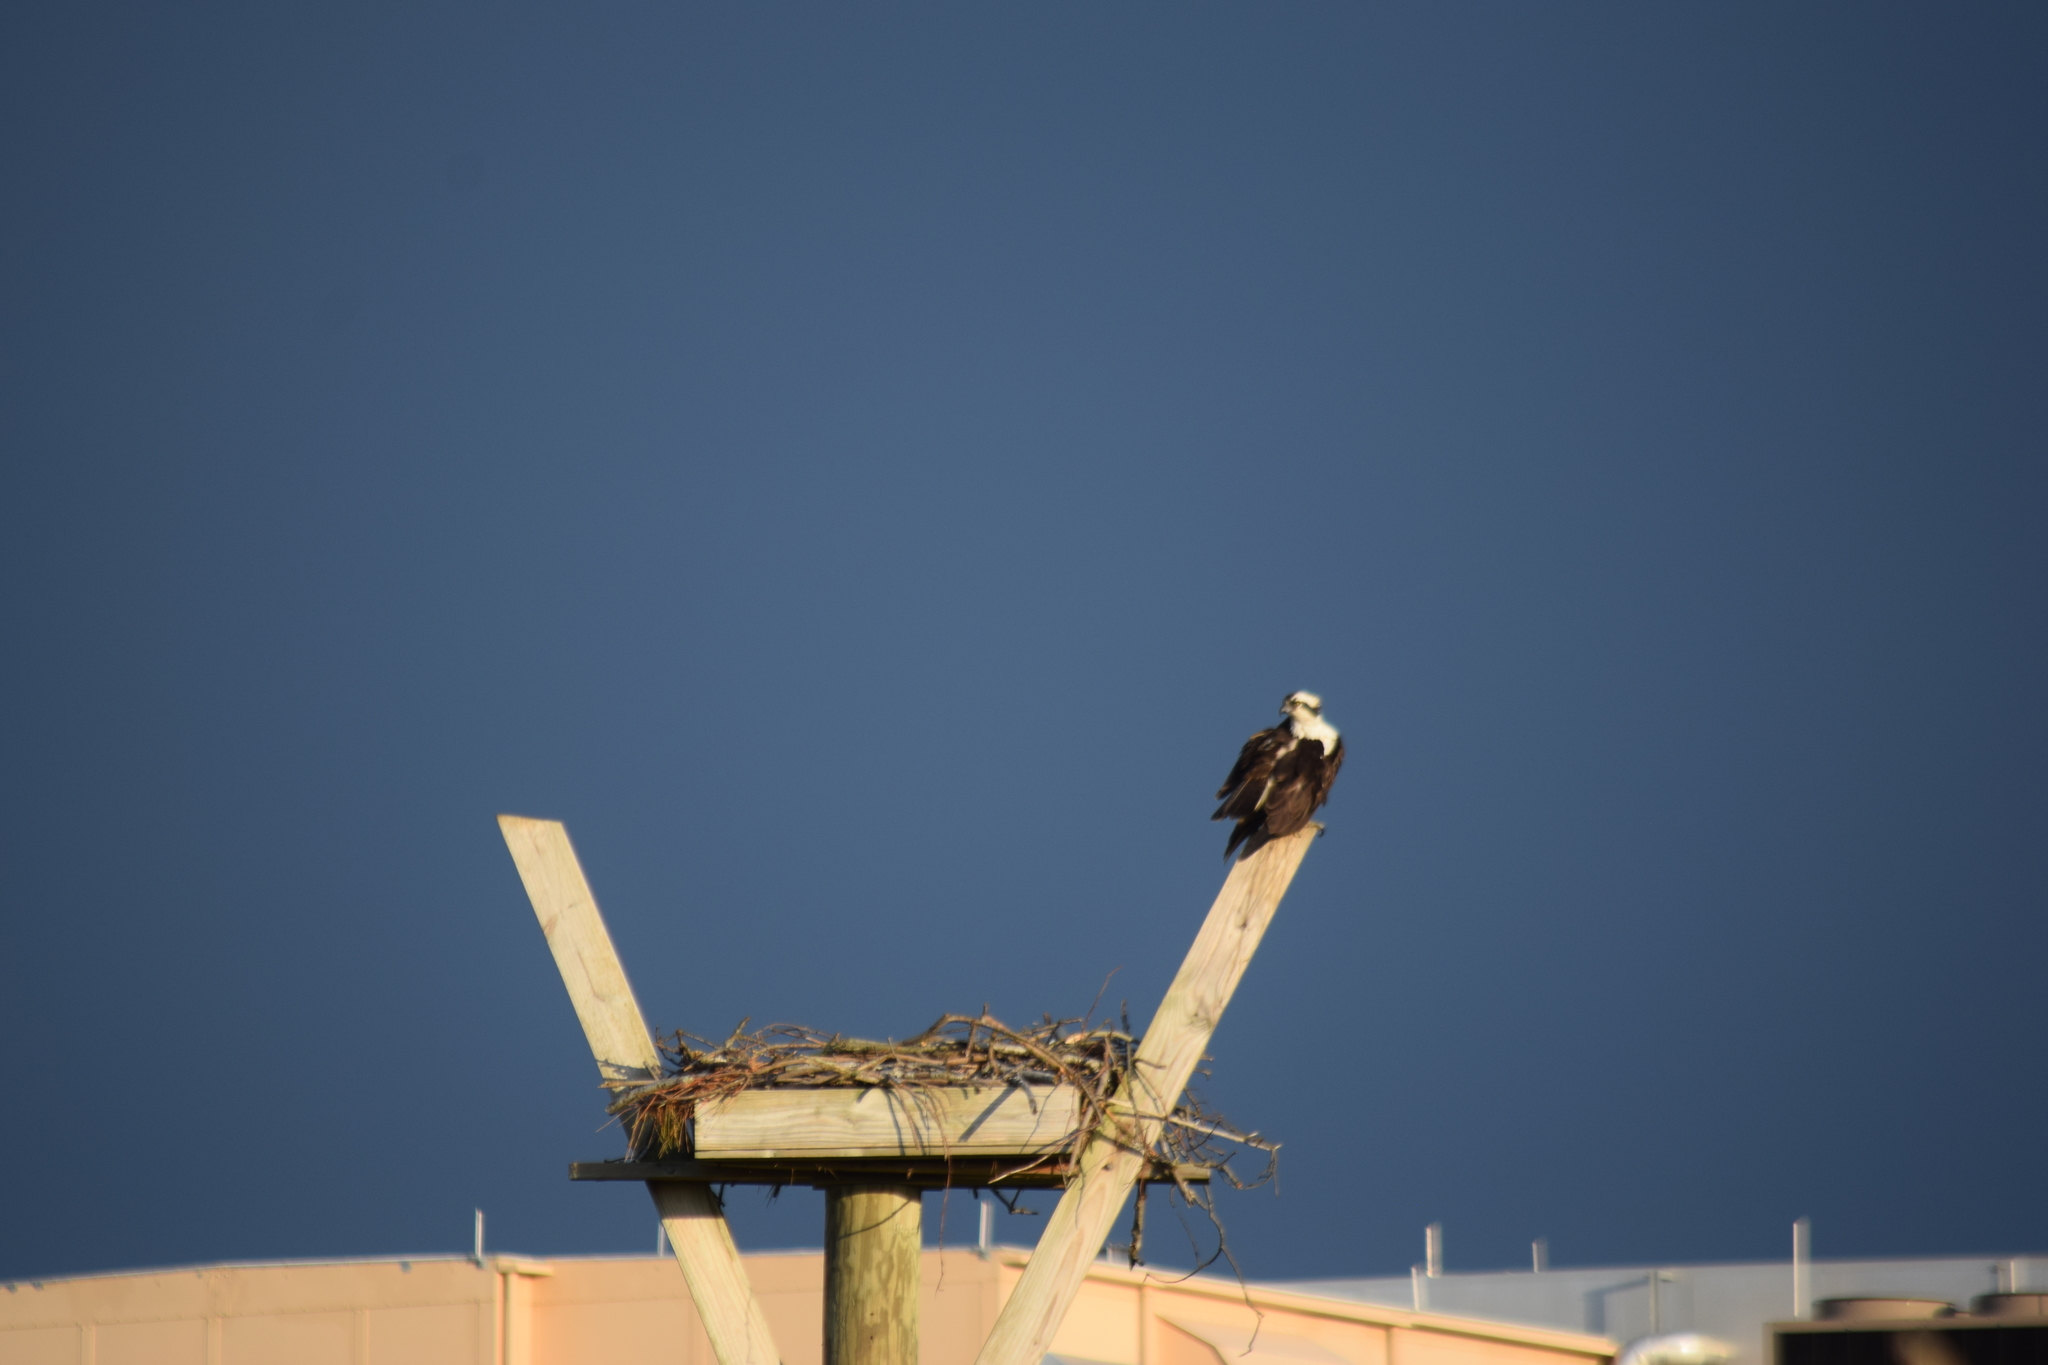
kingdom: Animalia
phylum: Chordata
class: Aves
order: Accipitriformes
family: Pandionidae
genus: Pandion
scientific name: Pandion haliaetus
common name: Osprey
